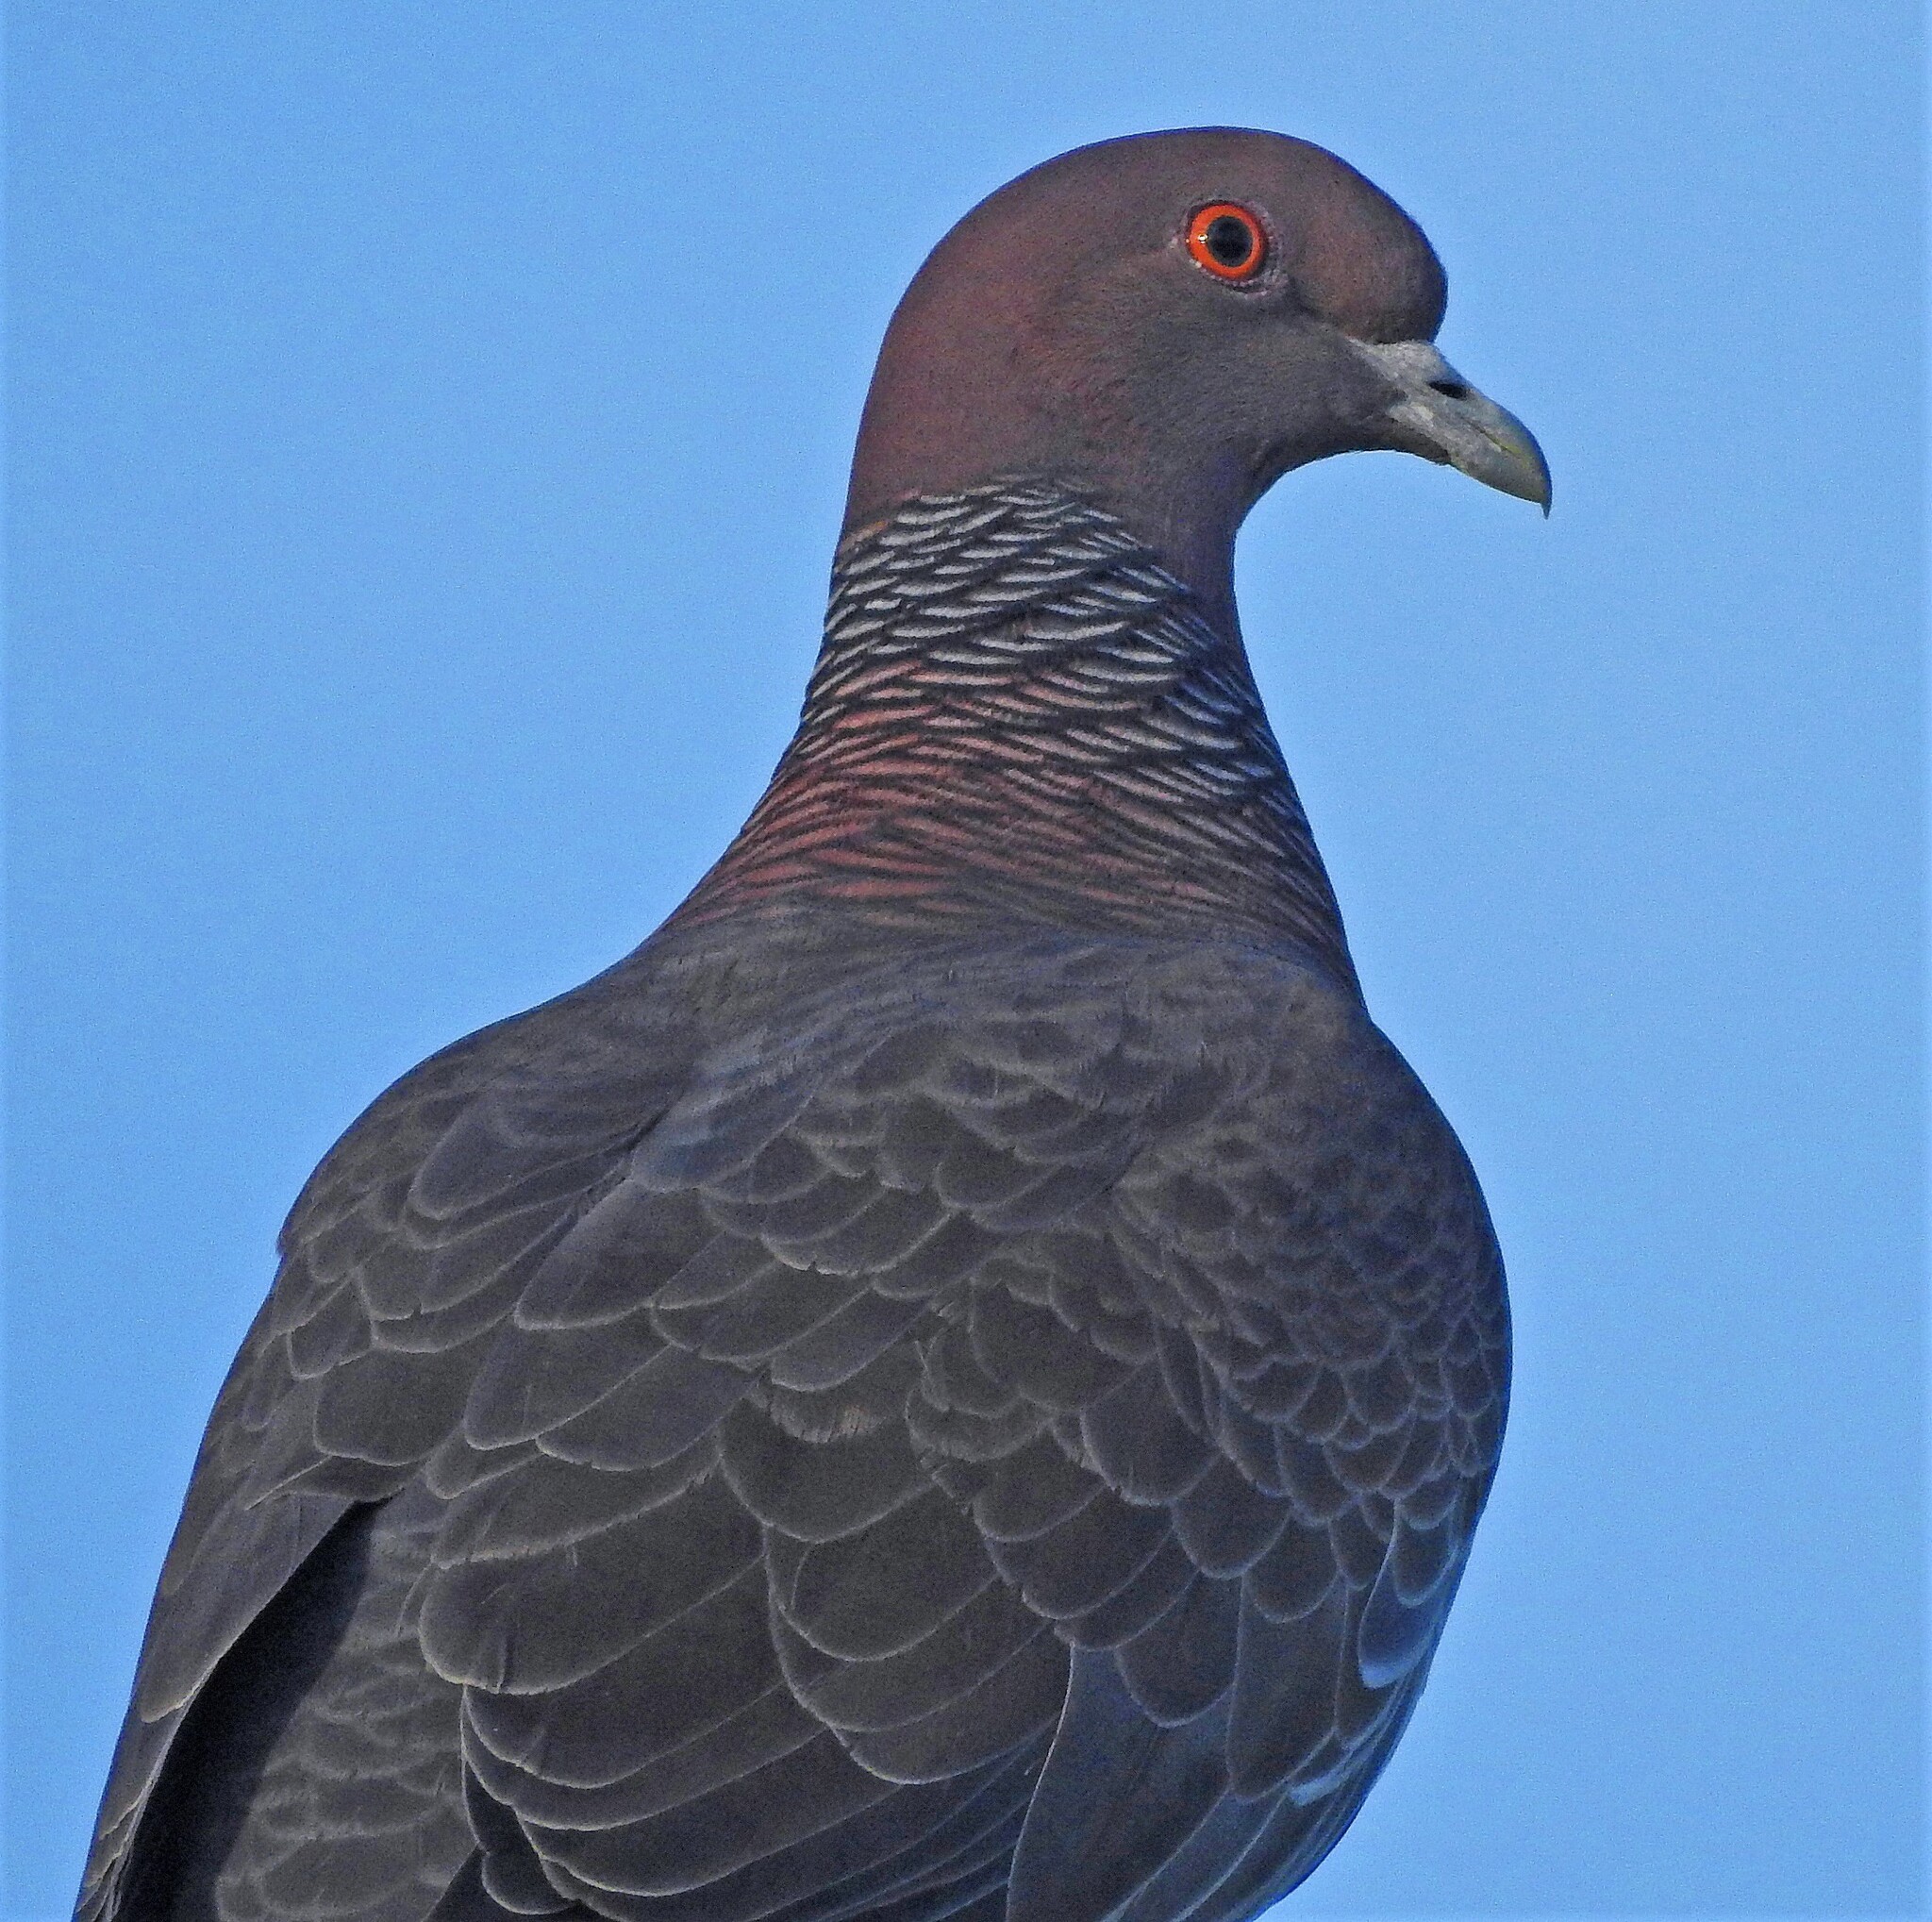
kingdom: Animalia
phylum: Chordata
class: Aves
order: Columbiformes
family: Columbidae
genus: Patagioenas
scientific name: Patagioenas picazuro
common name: Picazuro pigeon
